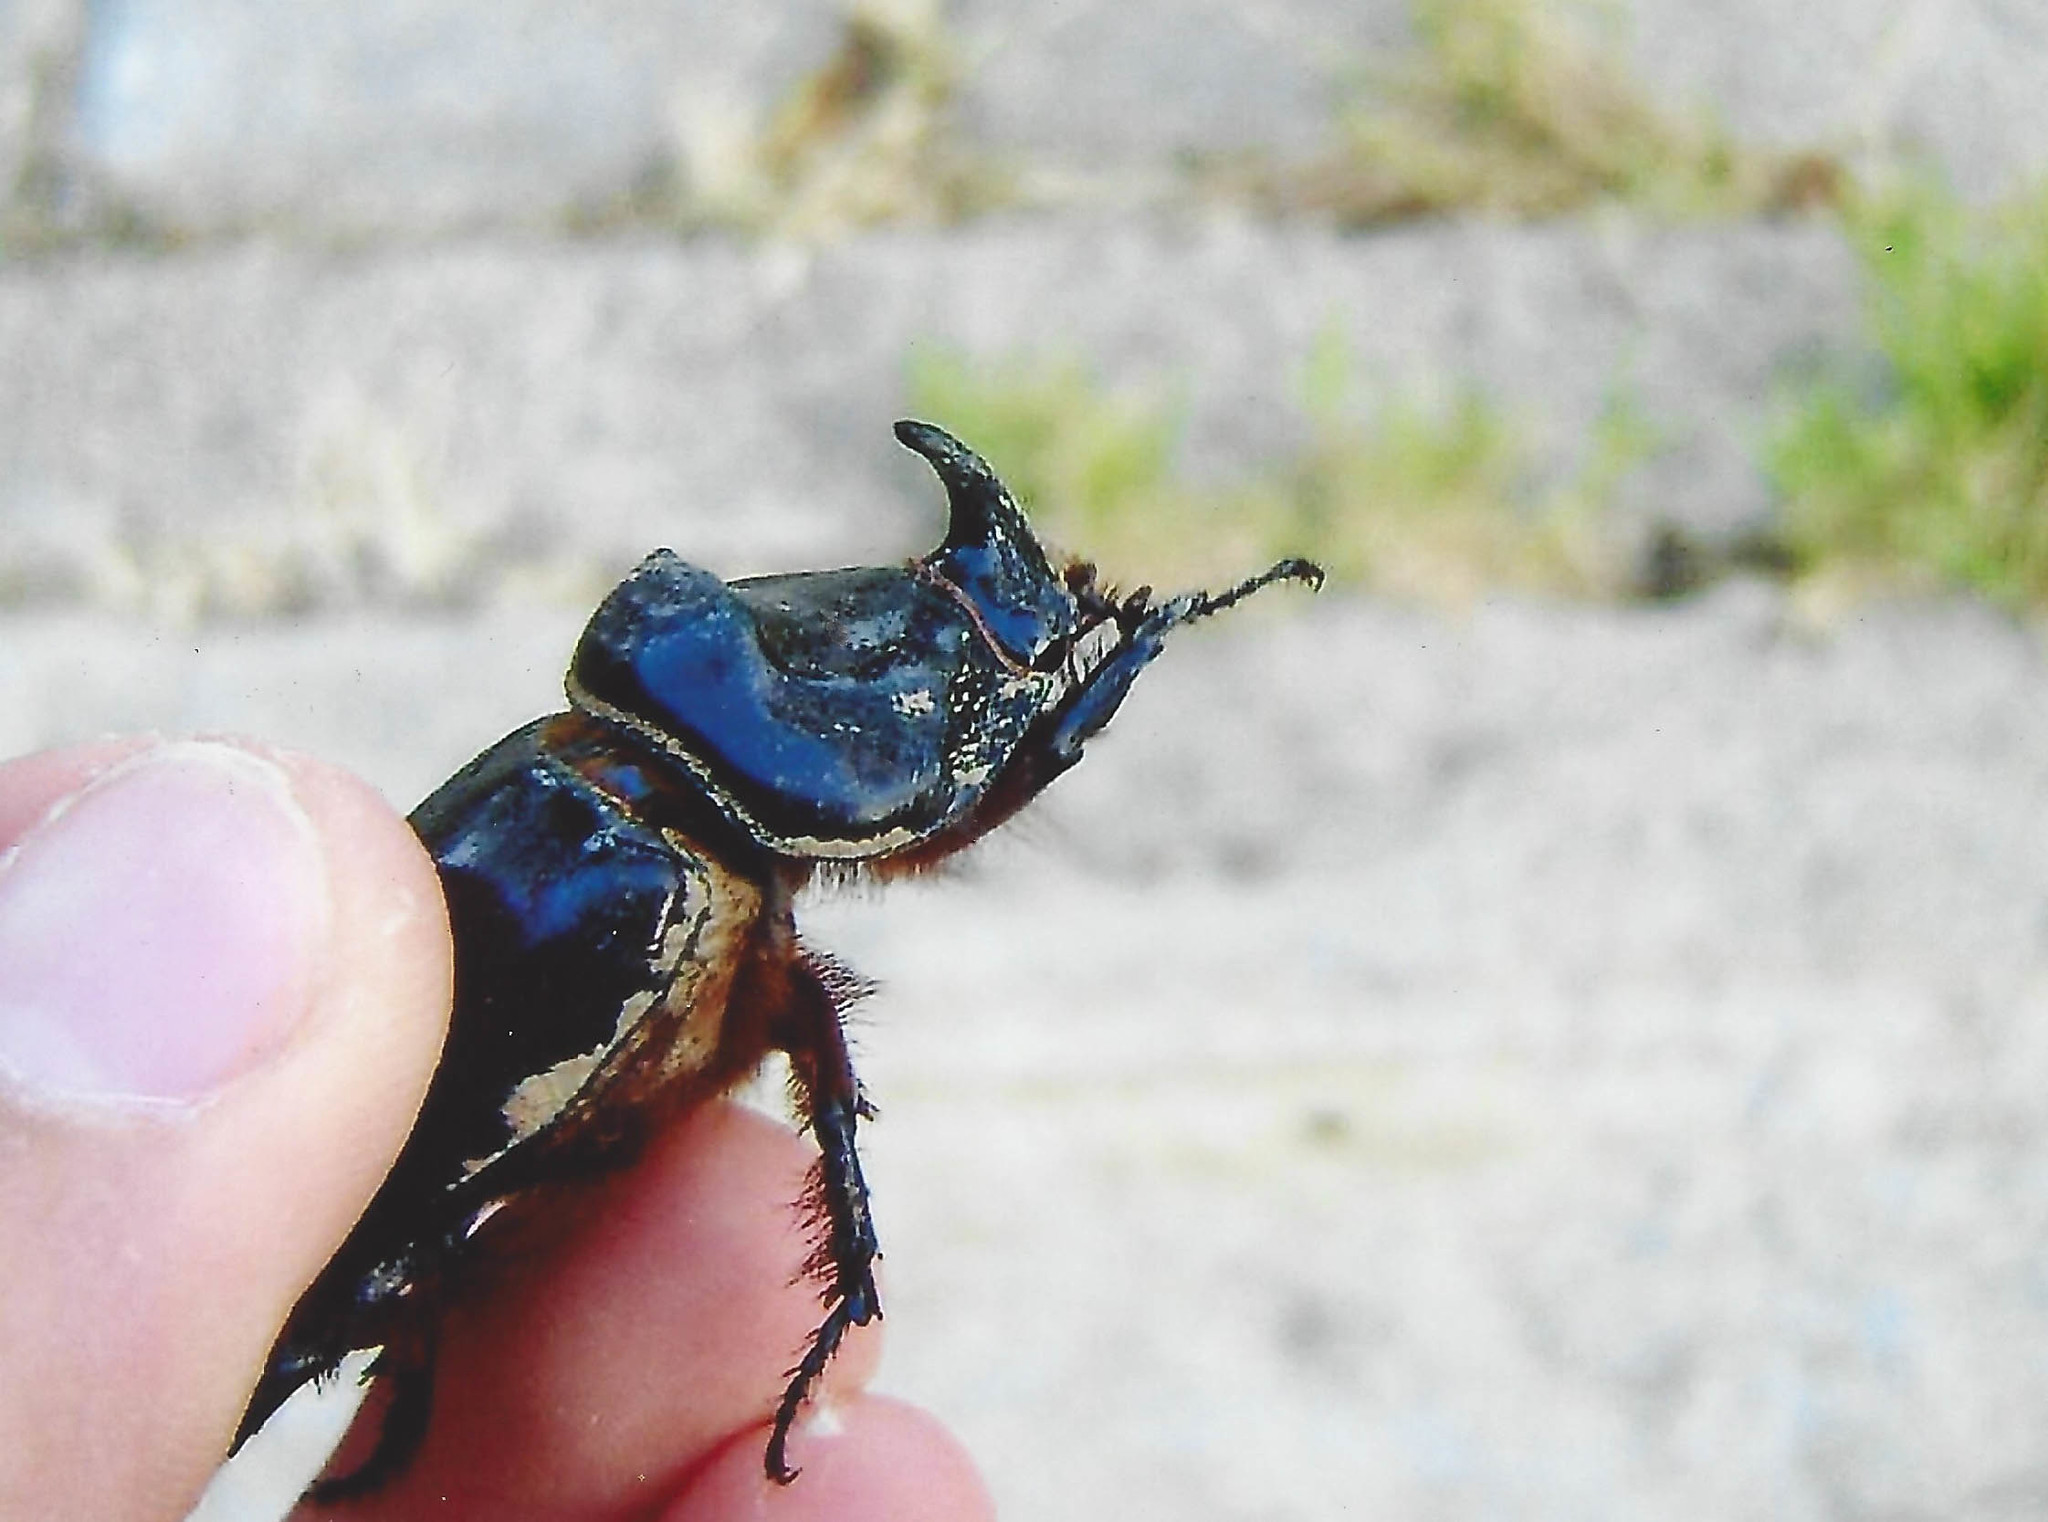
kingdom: Animalia
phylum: Arthropoda
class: Insecta
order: Coleoptera
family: Scarabaeidae
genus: Oryctes
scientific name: Oryctes nasicornis
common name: European rhinoceros beetle
